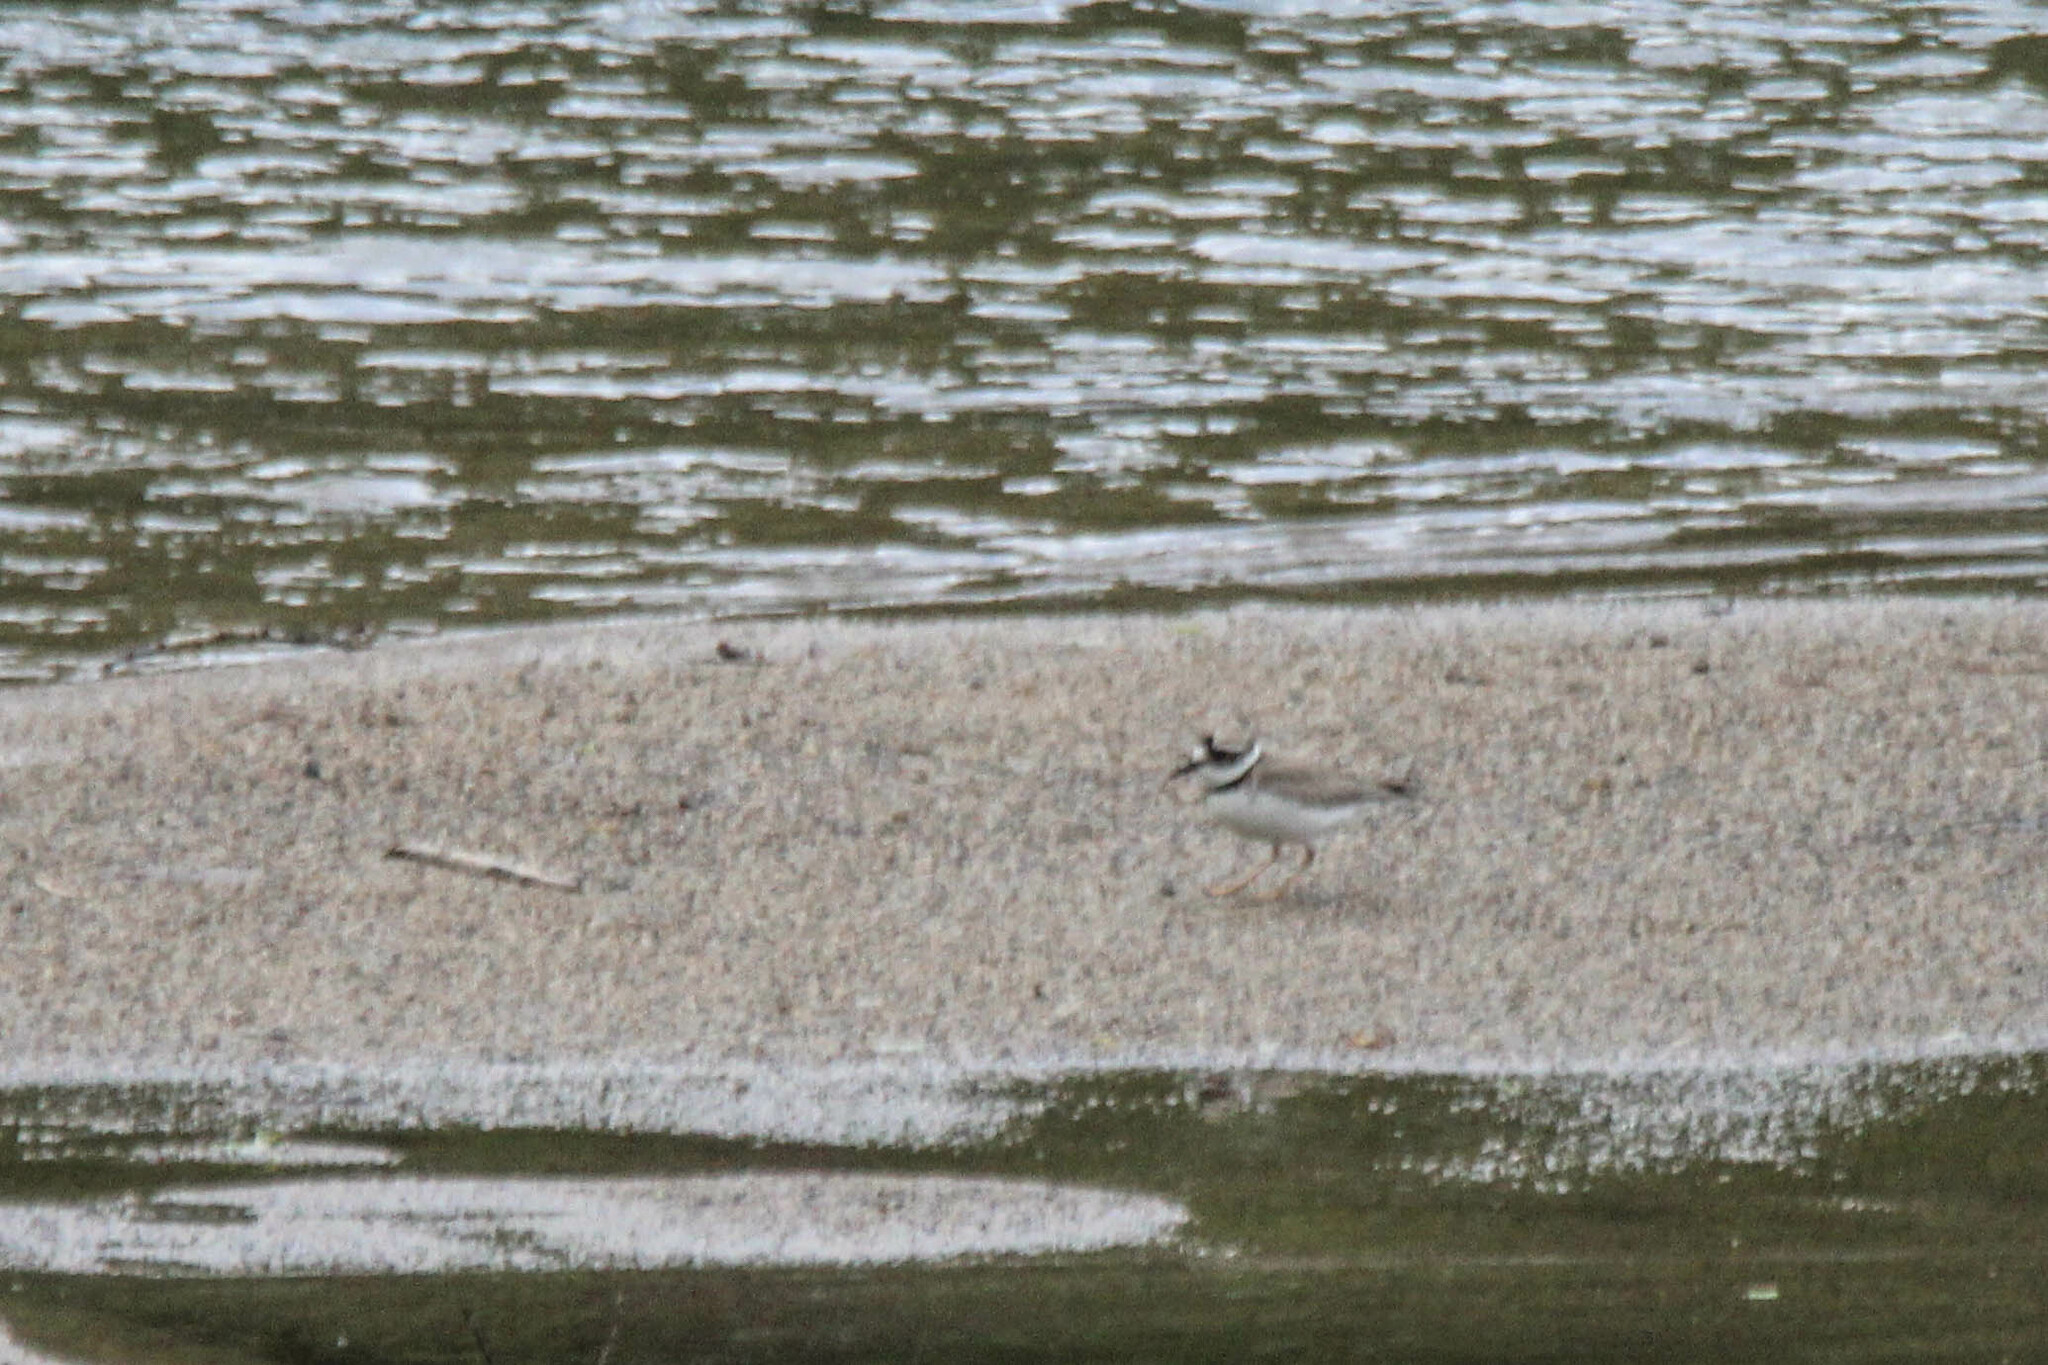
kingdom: Animalia
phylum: Chordata
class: Aves
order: Charadriiformes
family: Charadriidae
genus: Charadrius
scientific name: Charadrius placidus
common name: Long-billed plover
